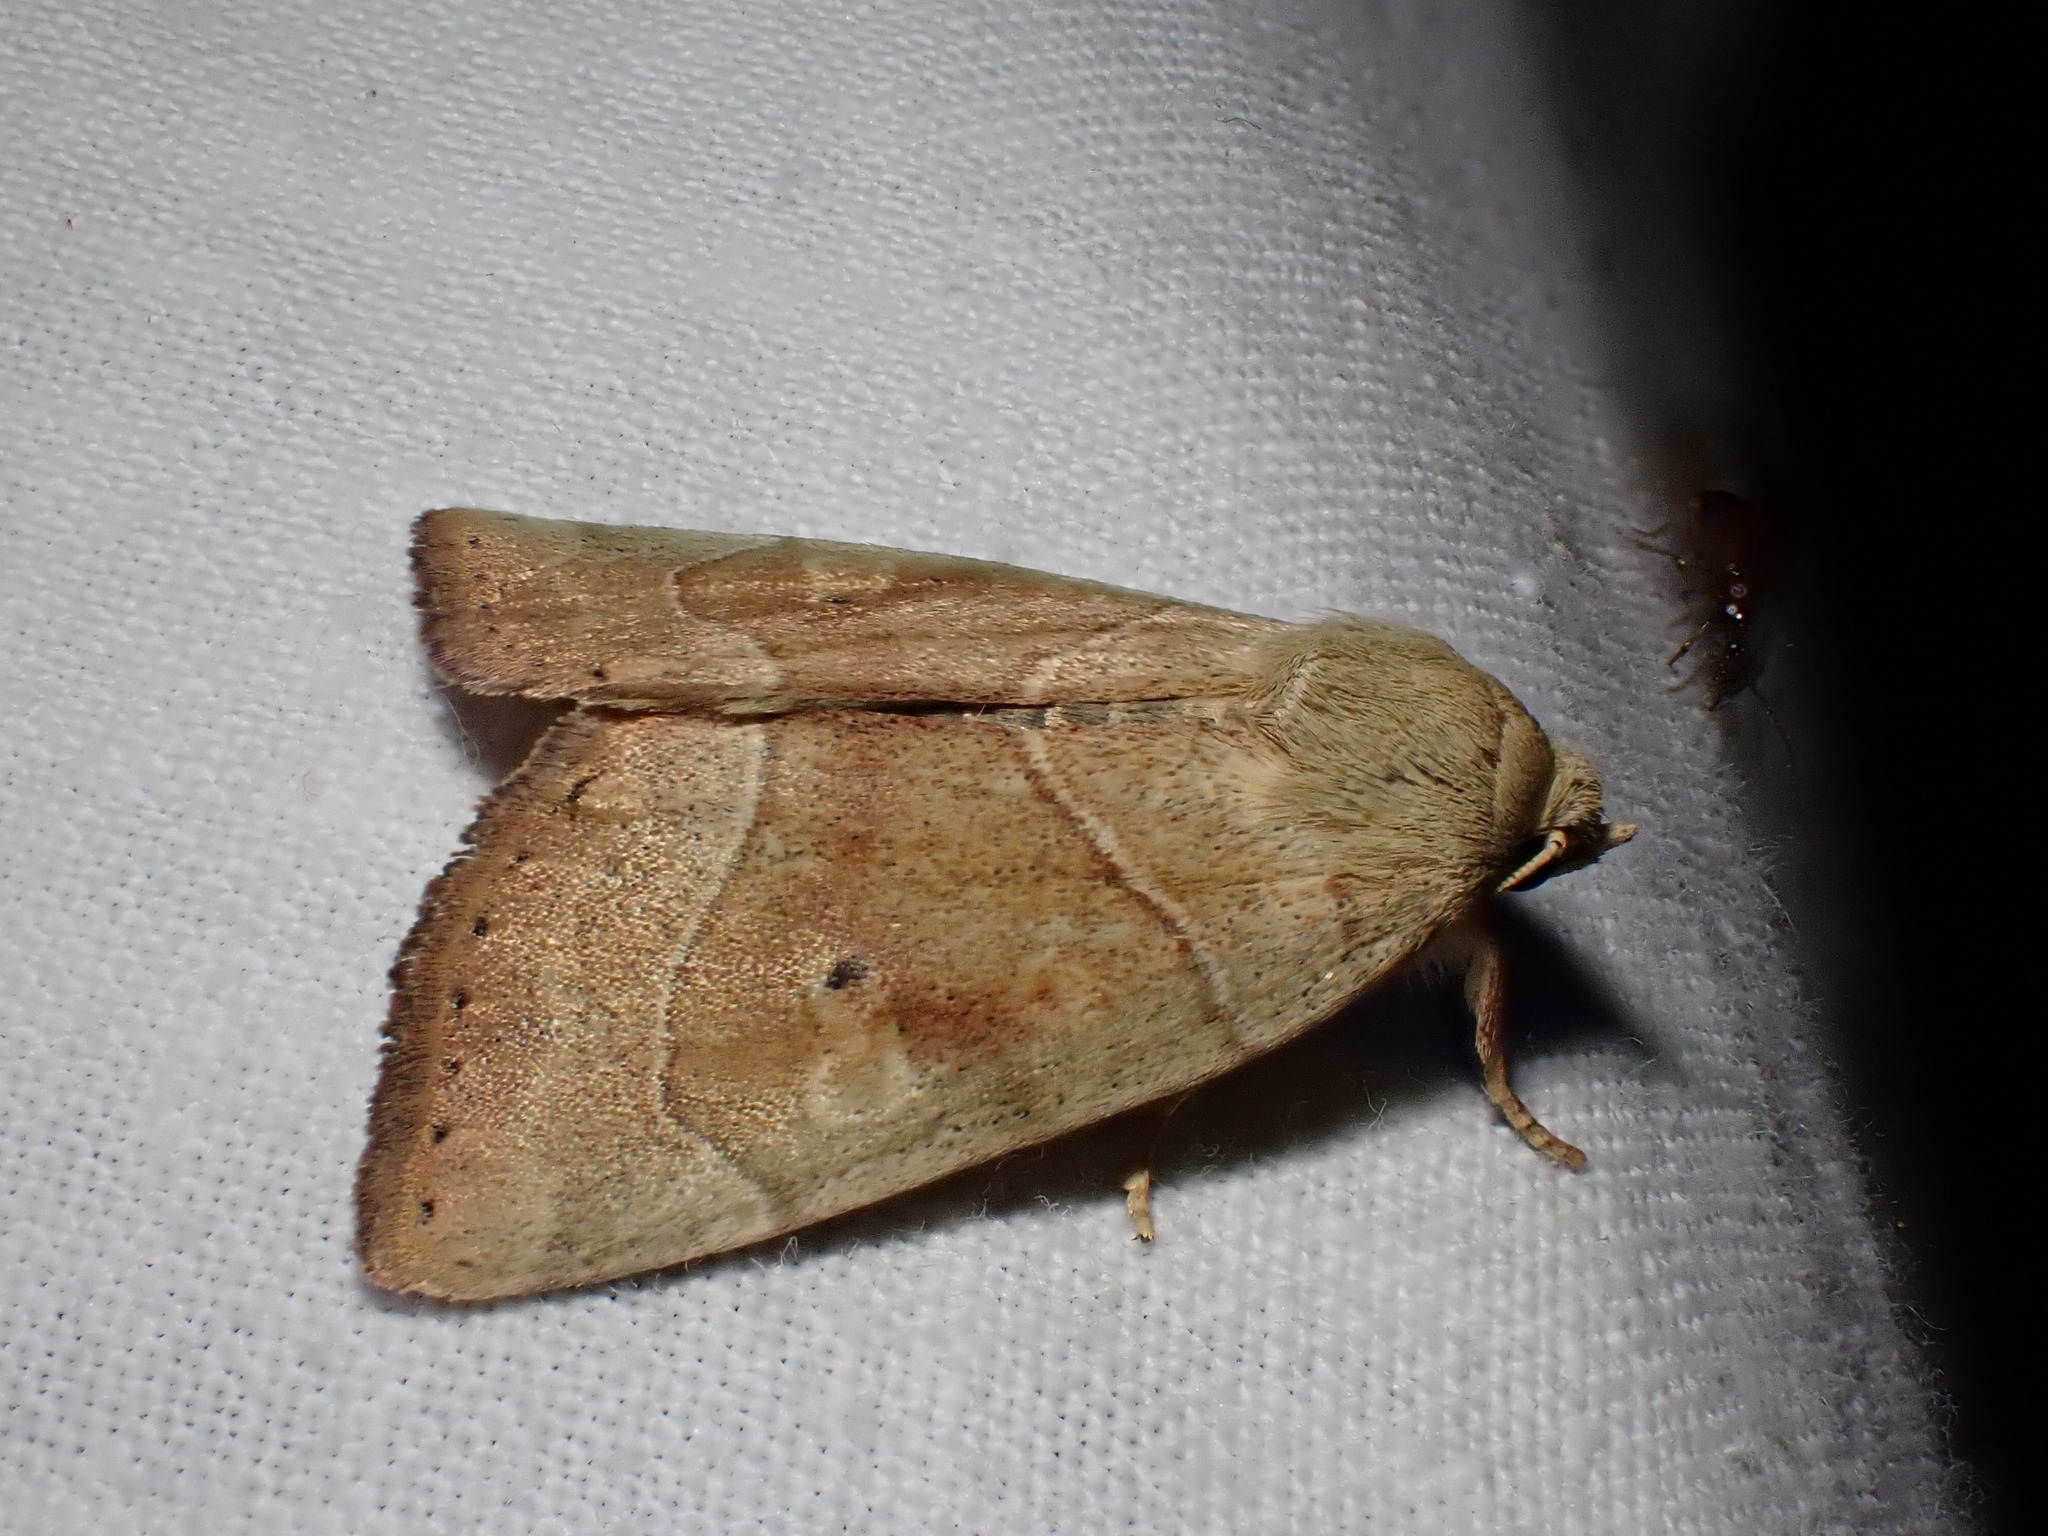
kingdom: Animalia
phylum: Arthropoda
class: Insecta
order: Lepidoptera
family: Noctuidae
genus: Cosmia
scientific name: Cosmia trapezina
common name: Dun-bar
